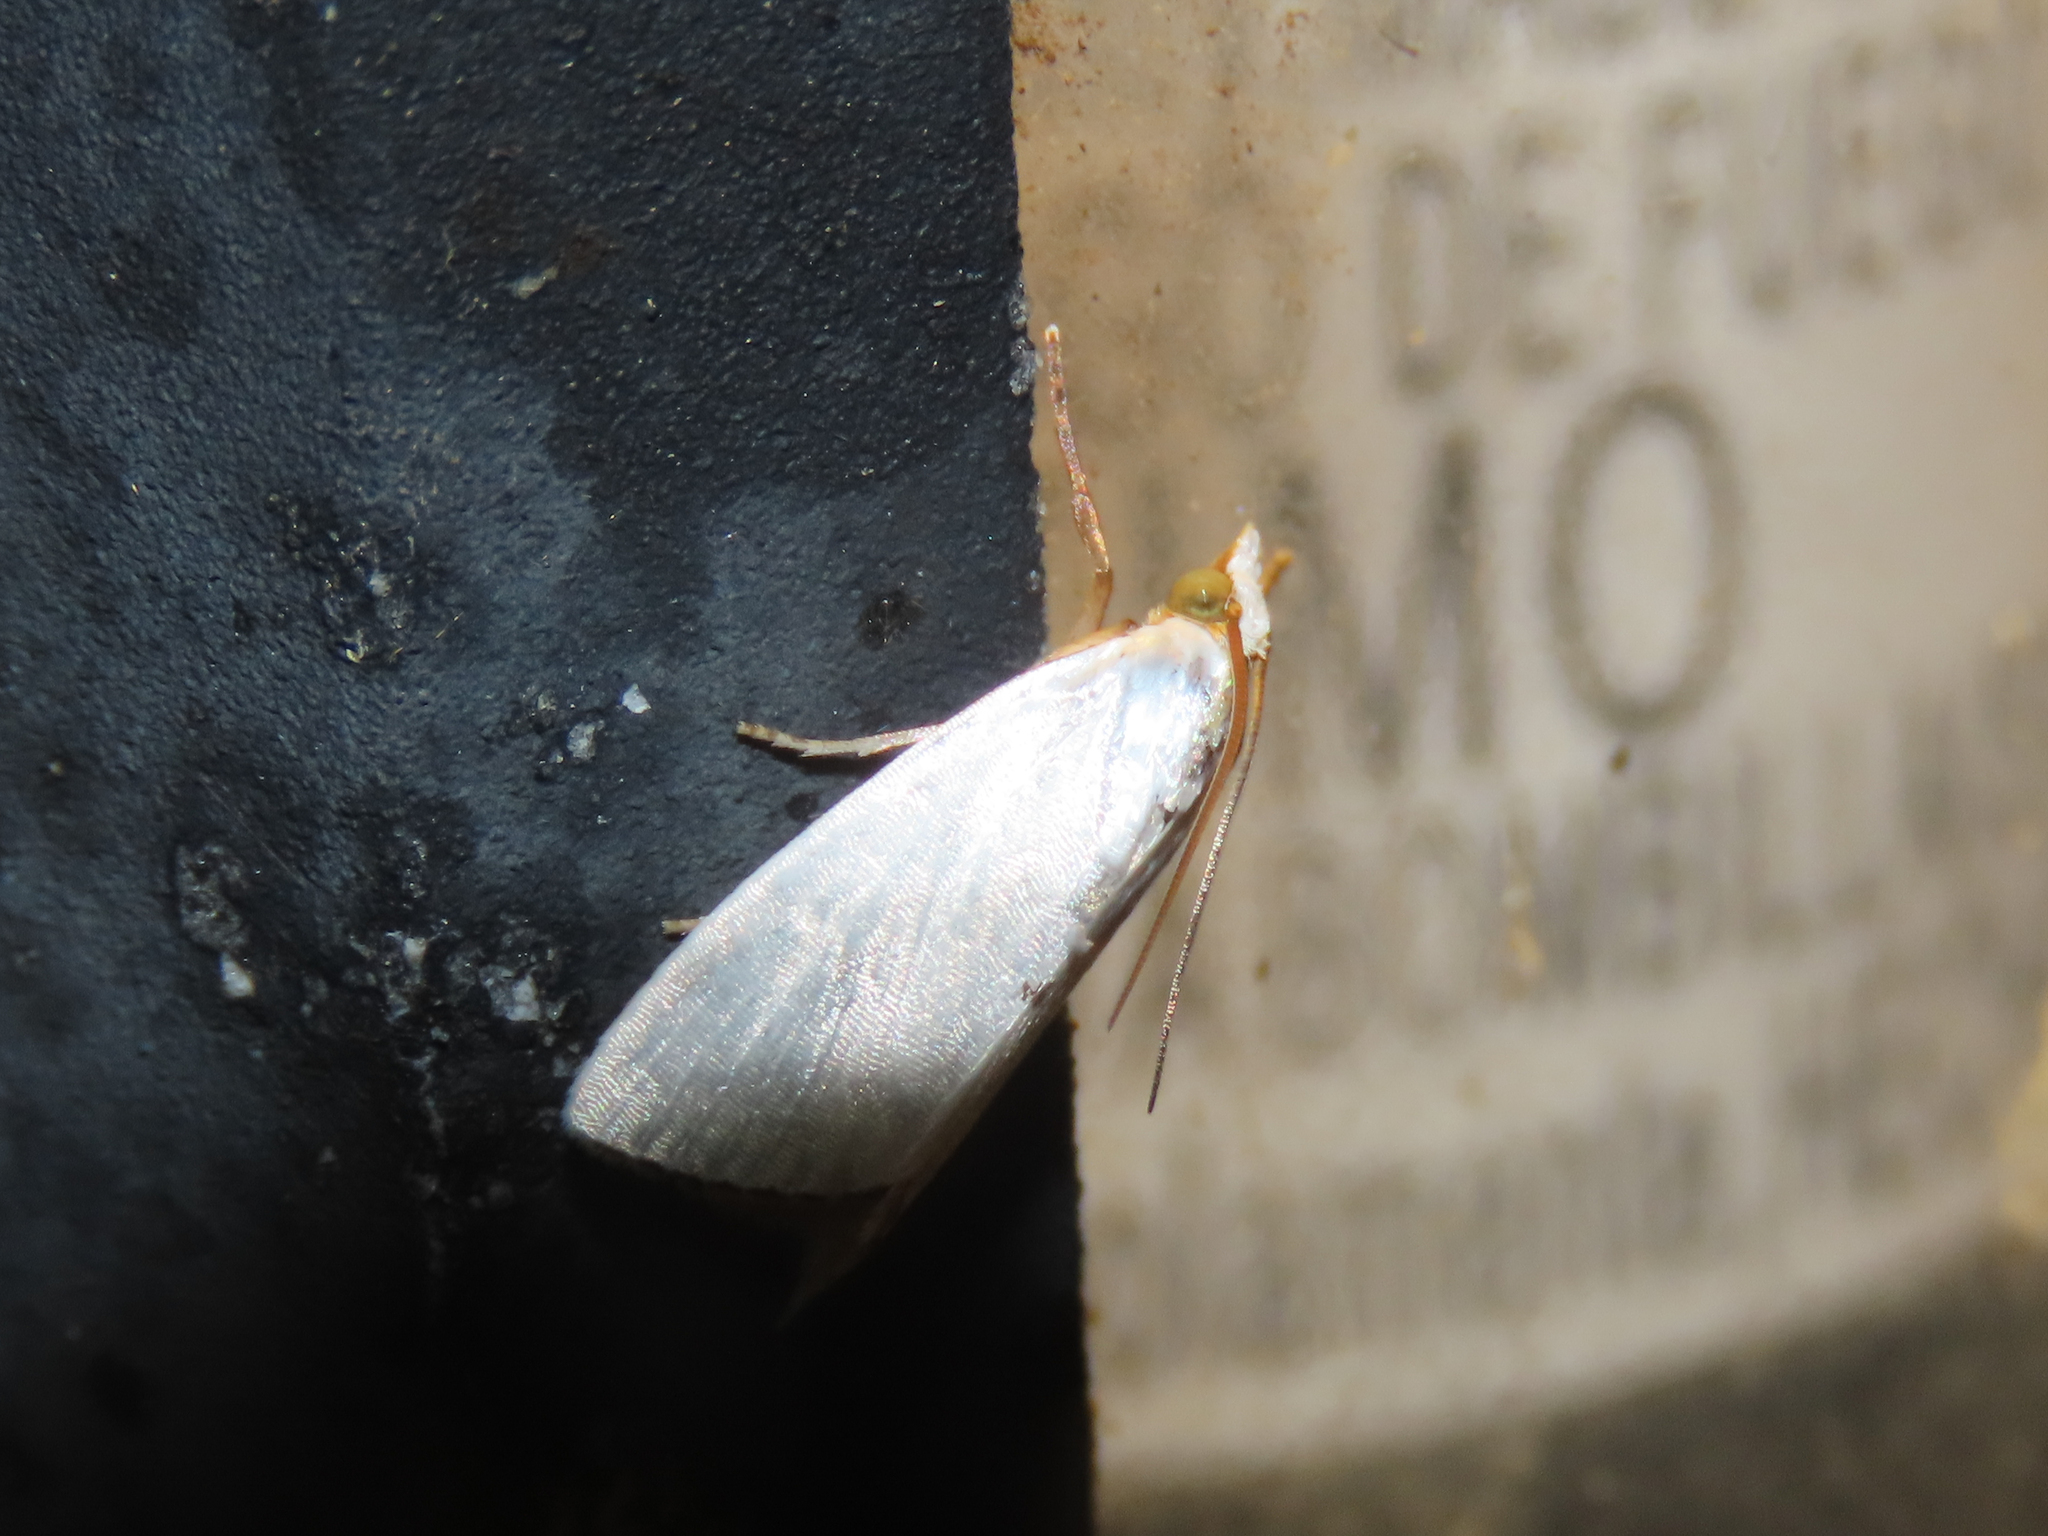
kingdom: Animalia
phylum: Arthropoda
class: Insecta
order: Lepidoptera
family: Crambidae
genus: Argyria
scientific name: Argyria nivalis
